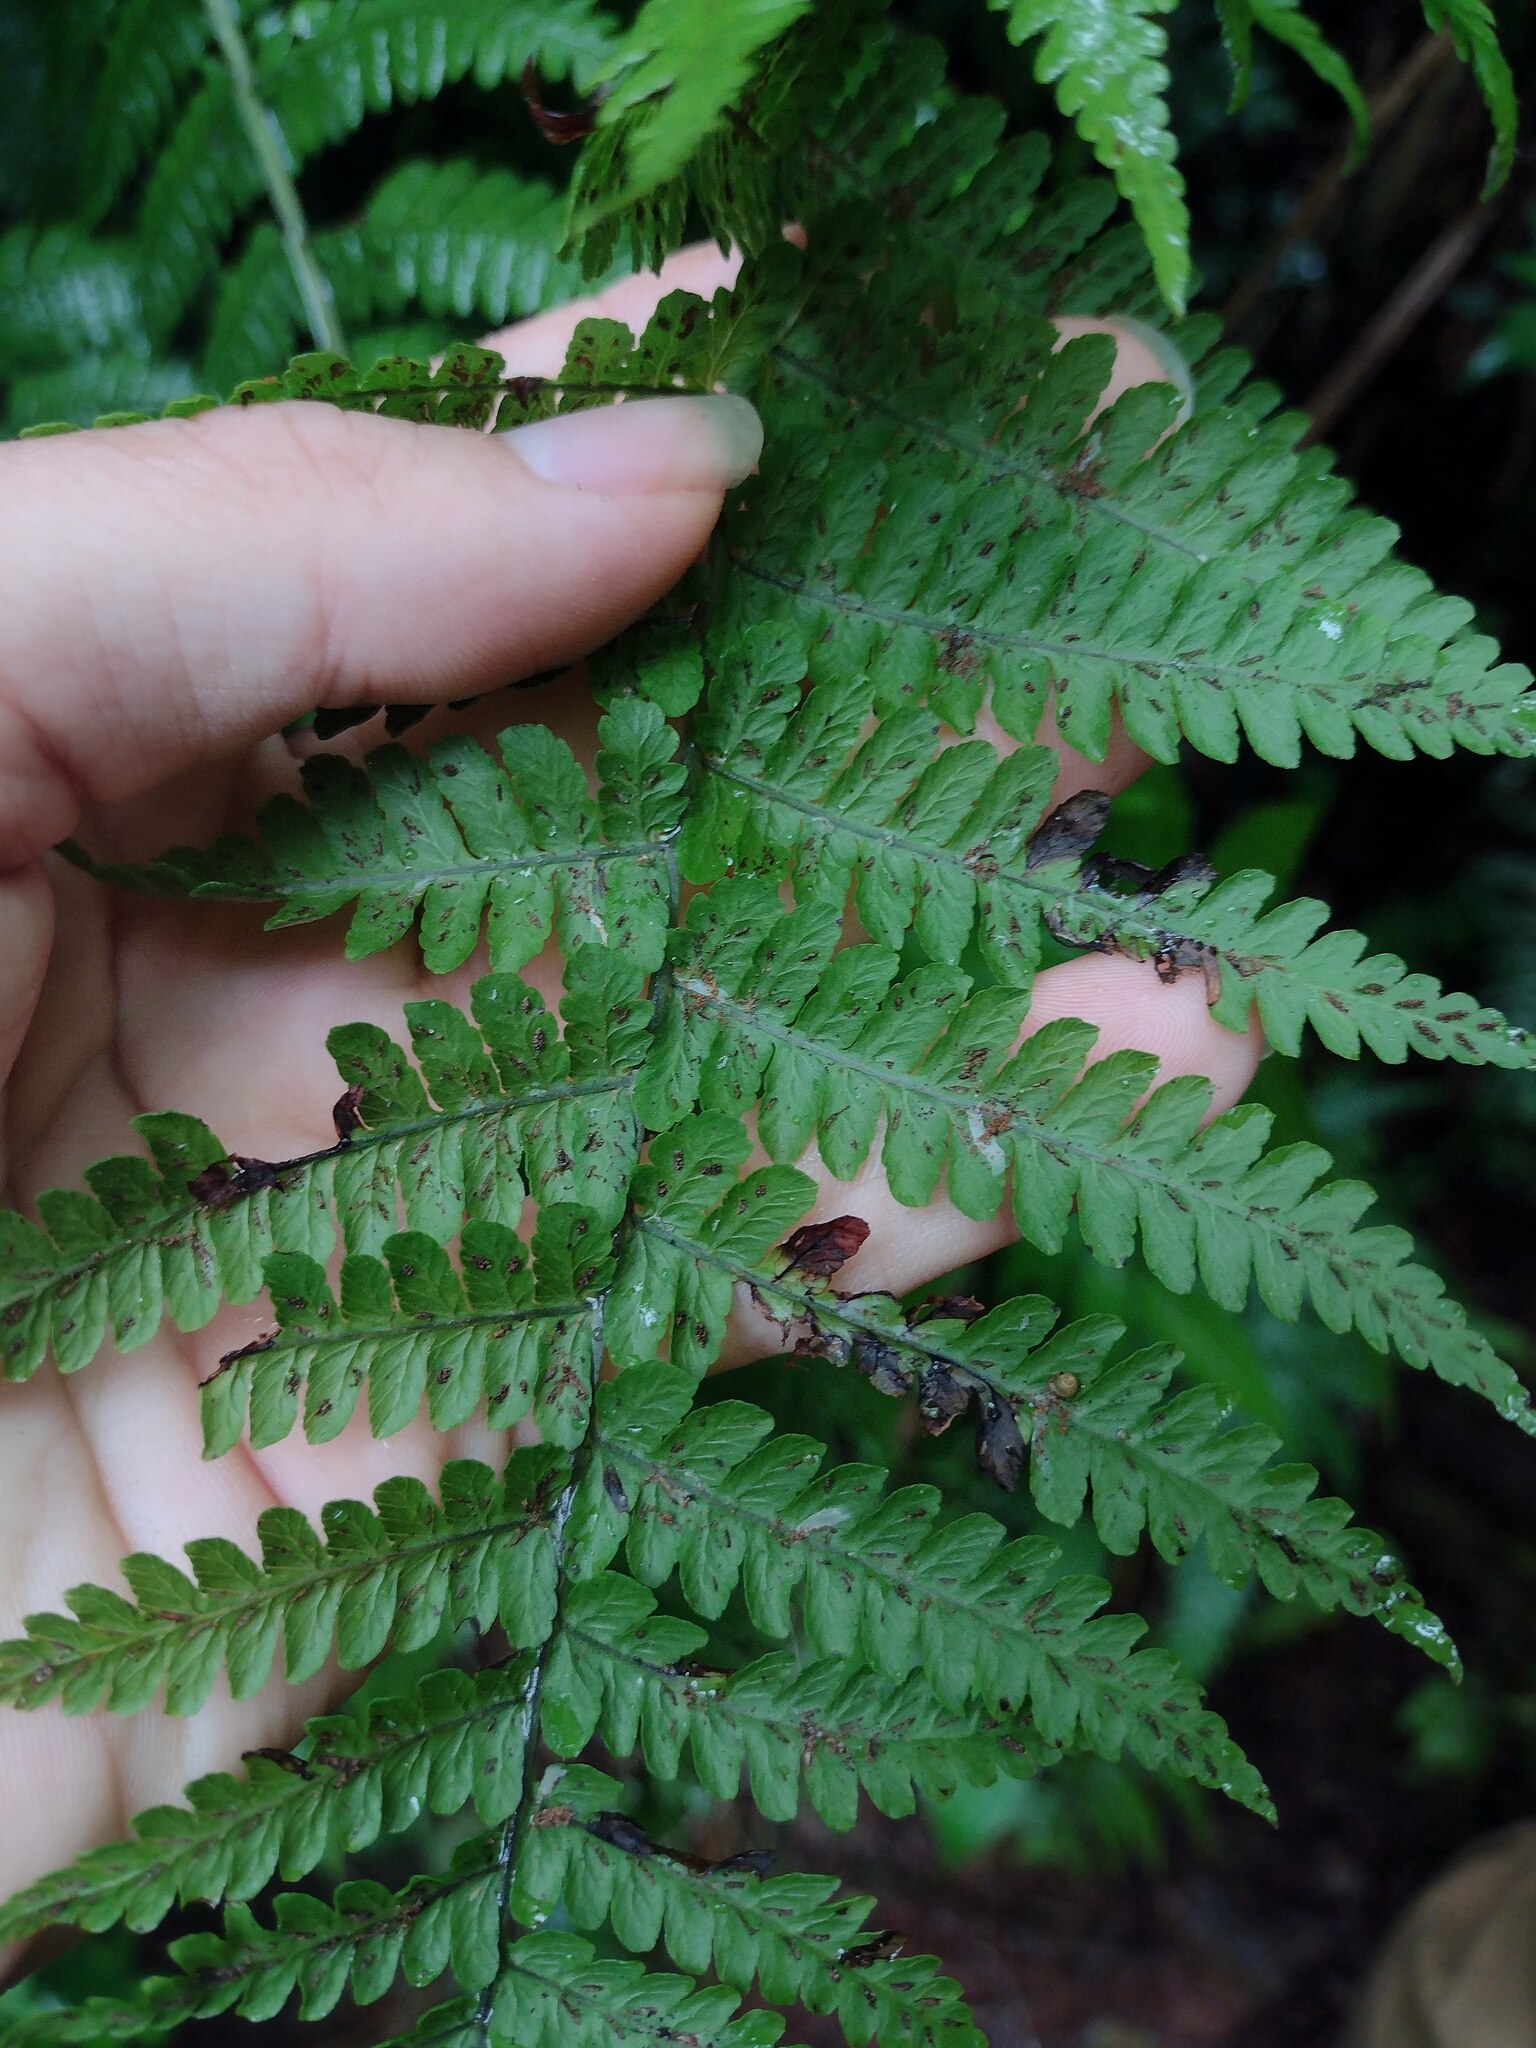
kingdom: Plantae
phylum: Tracheophyta
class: Polypodiopsida
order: Polypodiales
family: Athyriaceae
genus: Diplazium
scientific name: Diplazium sandwichianum
